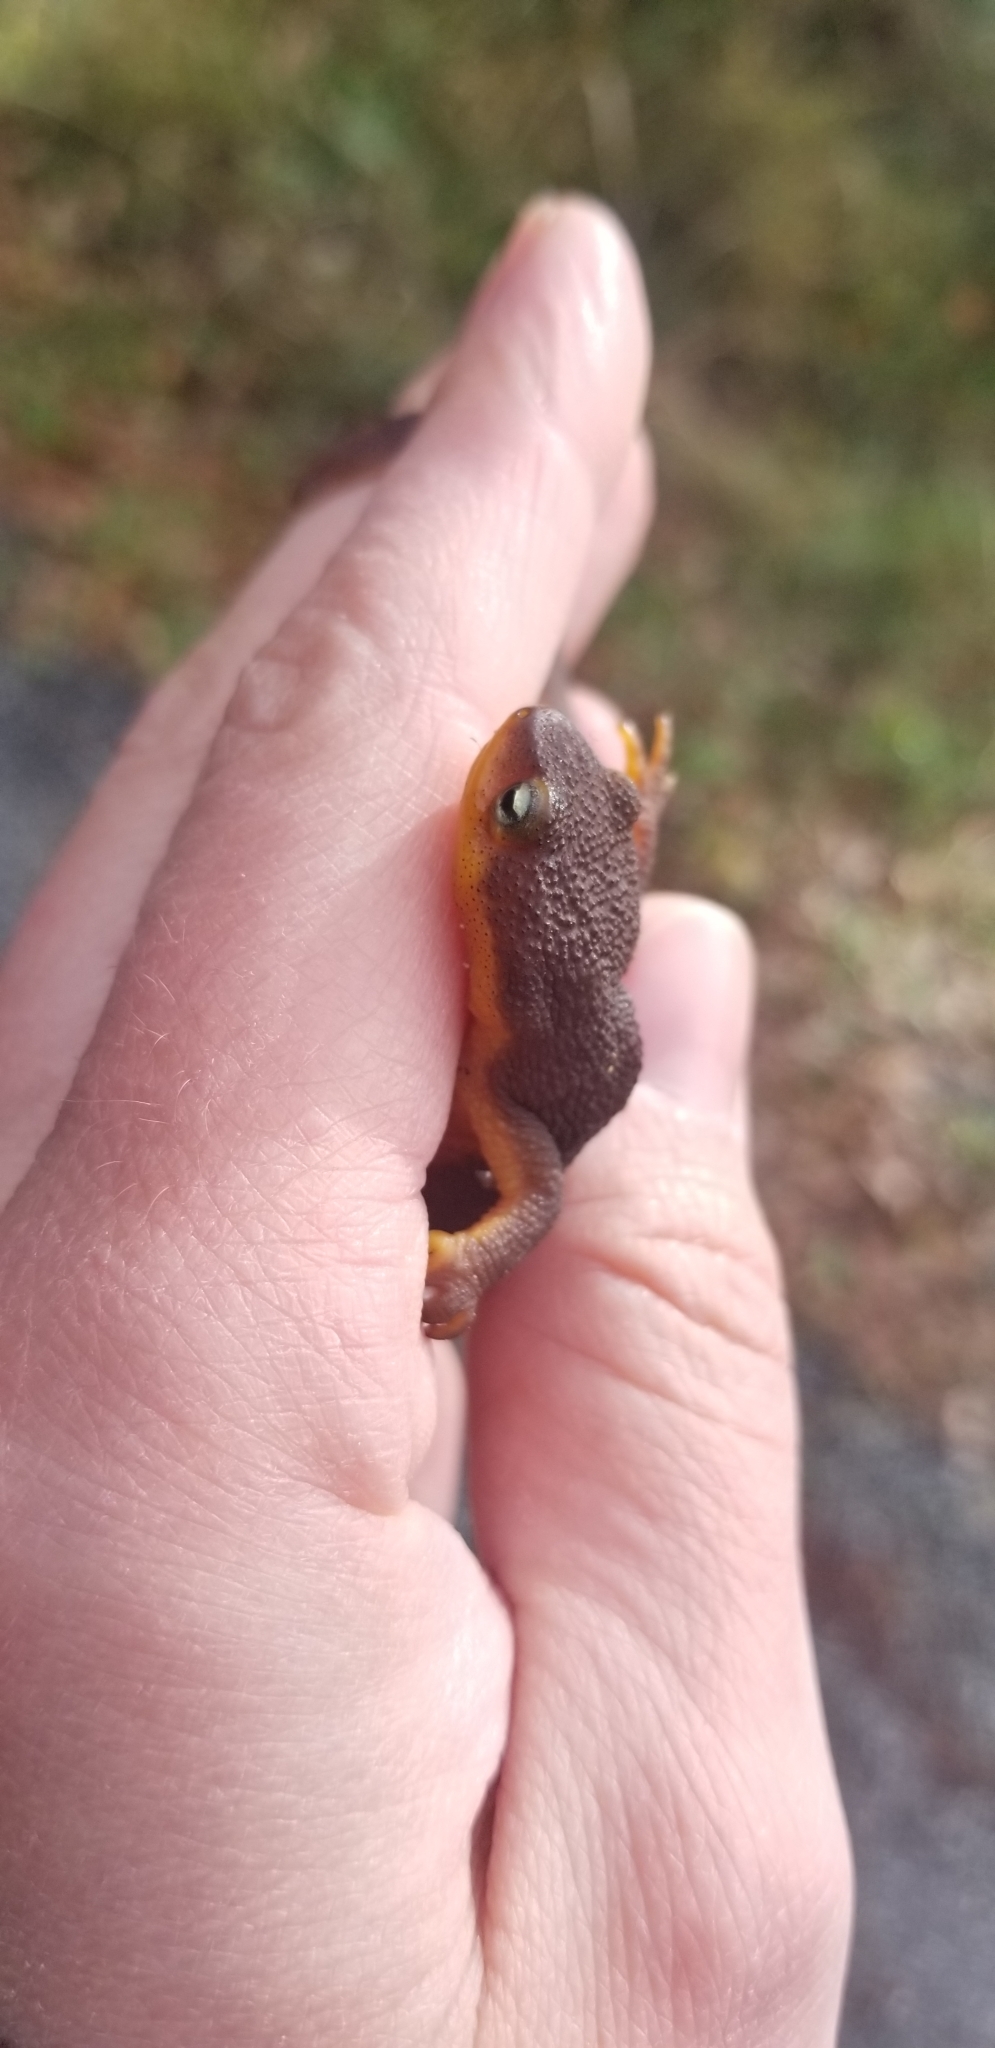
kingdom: Animalia
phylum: Chordata
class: Amphibia
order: Caudata
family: Salamandridae
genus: Taricha
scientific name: Taricha torosa
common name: California newt
